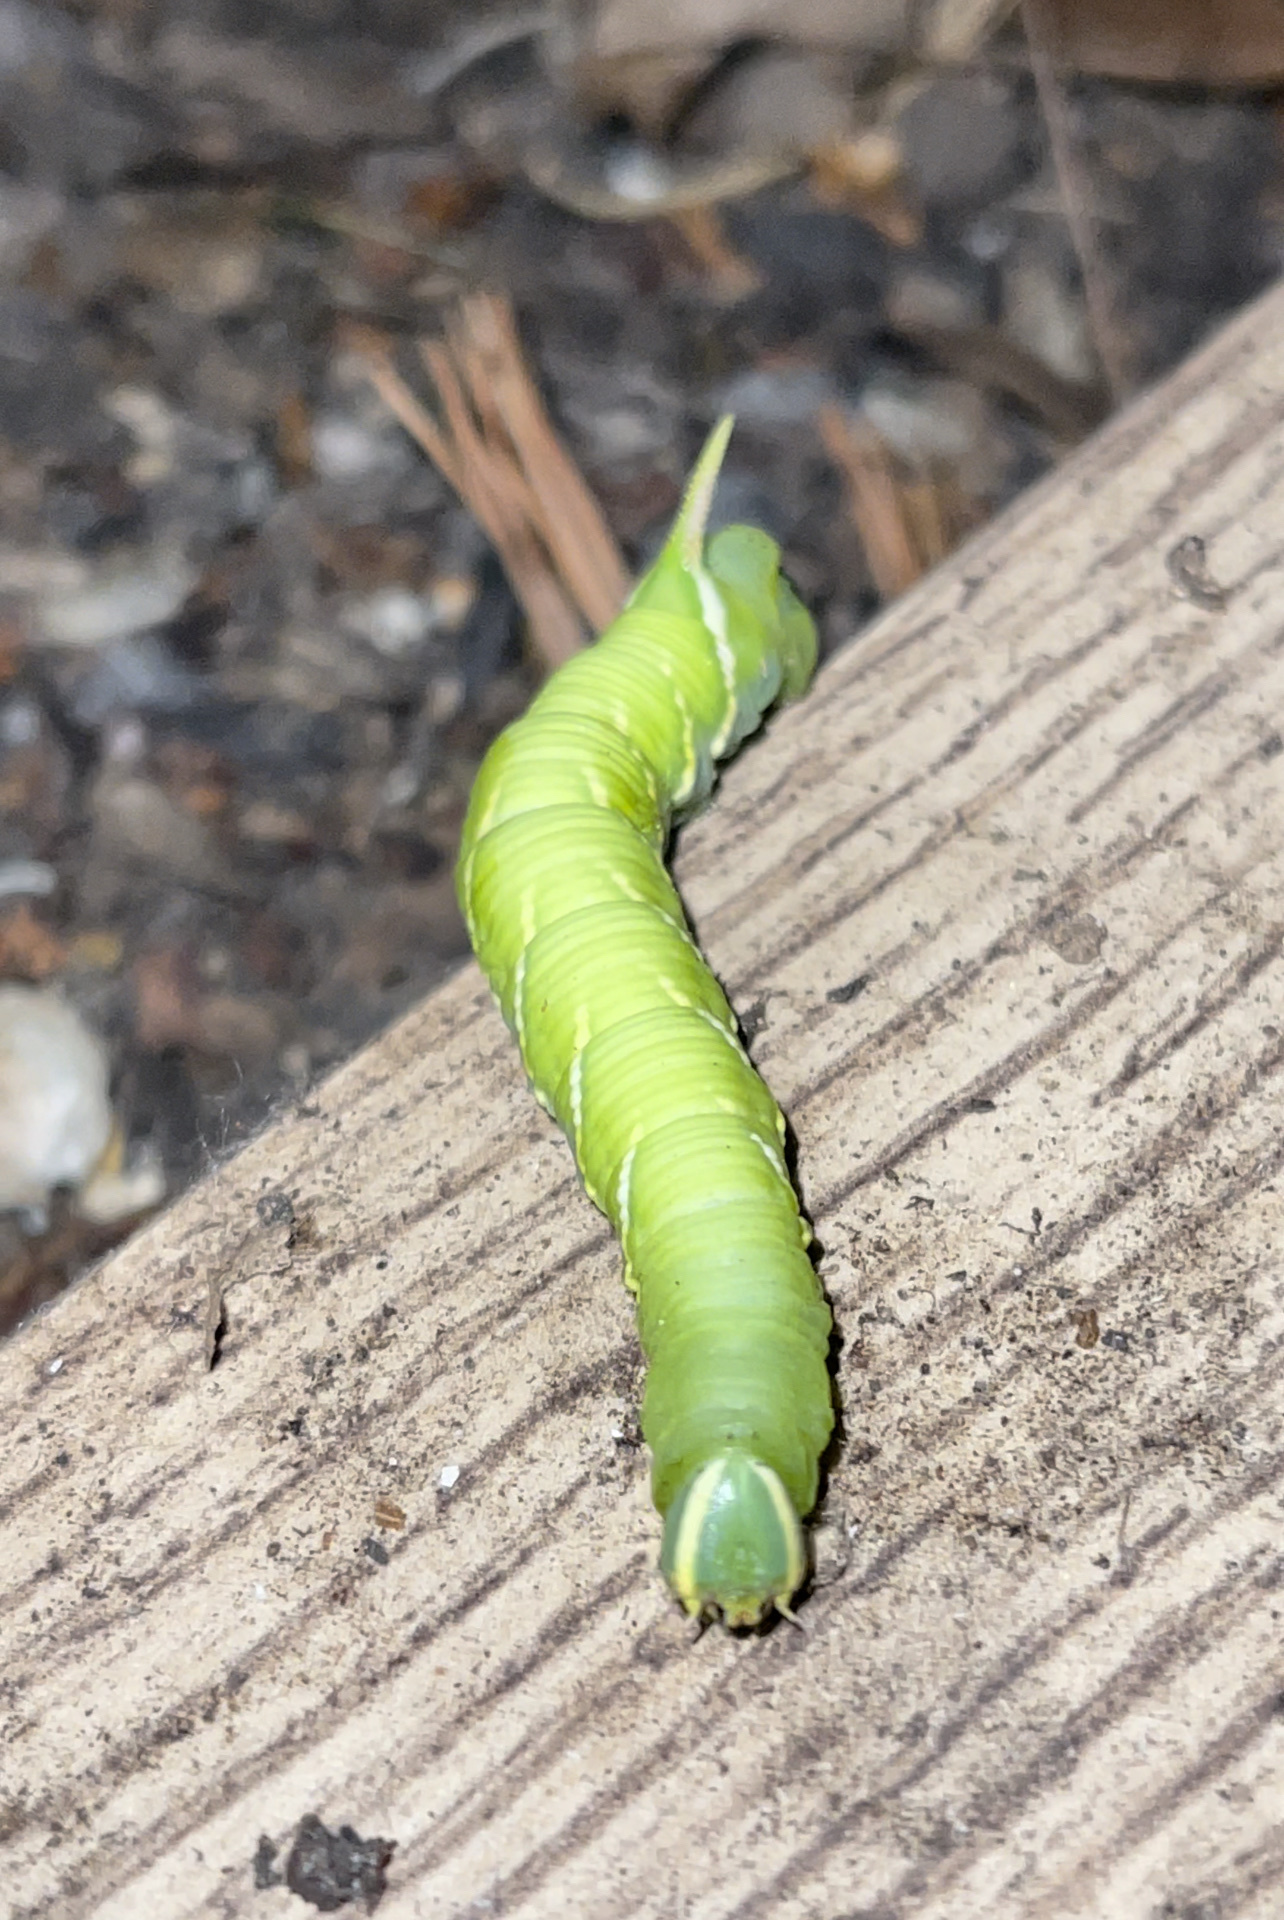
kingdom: Animalia
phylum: Arthropoda
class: Insecta
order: Lepidoptera
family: Sphingidae
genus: Ceratomia
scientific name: Ceratomia undulosa
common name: Waved sphinx
